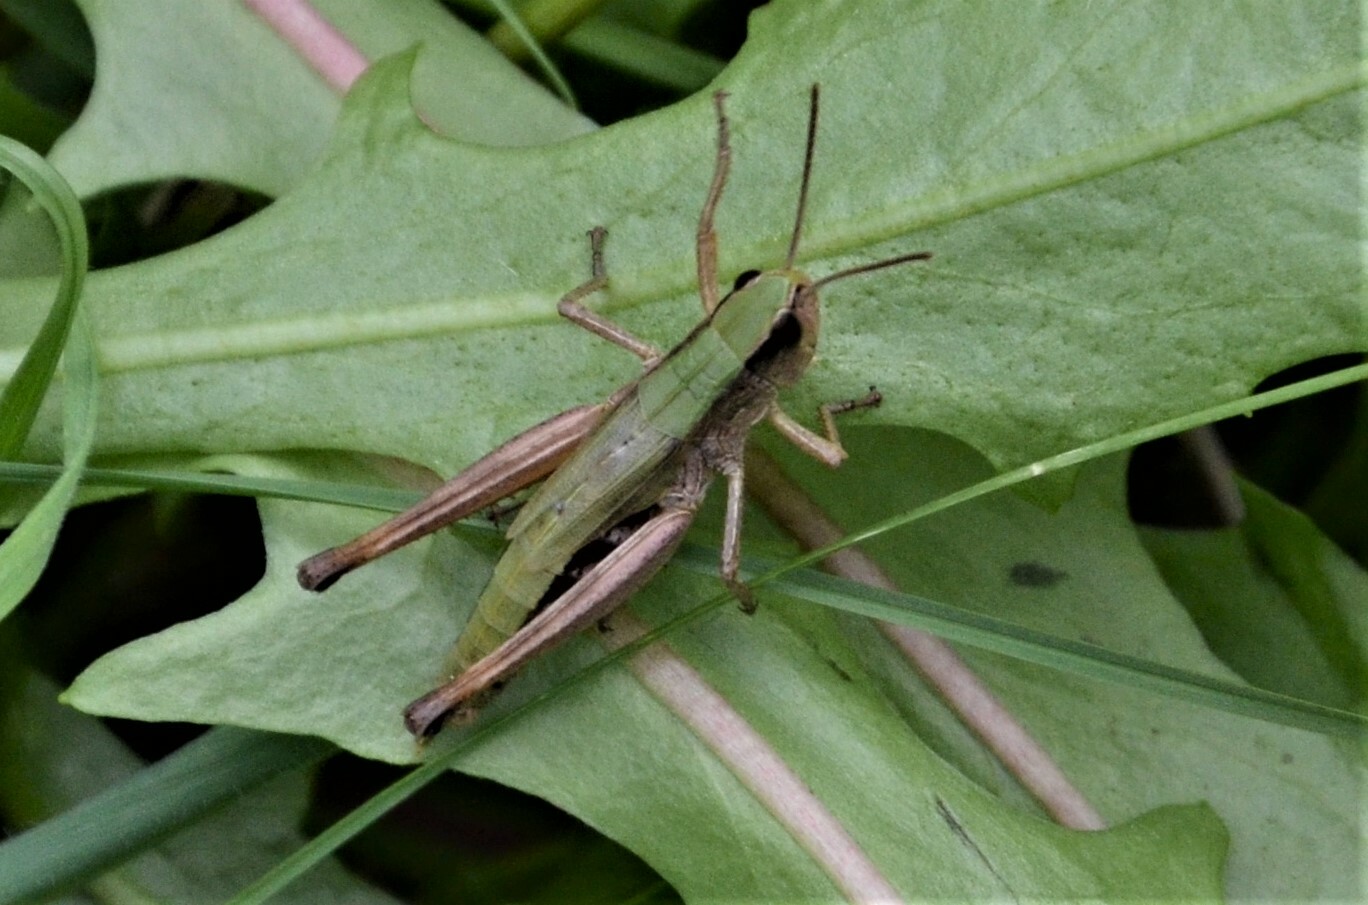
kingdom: Animalia
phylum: Arthropoda
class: Insecta
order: Orthoptera
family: Acrididae
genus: Pseudochorthippus
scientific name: Pseudochorthippus parallelus
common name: Meadow grasshopper
